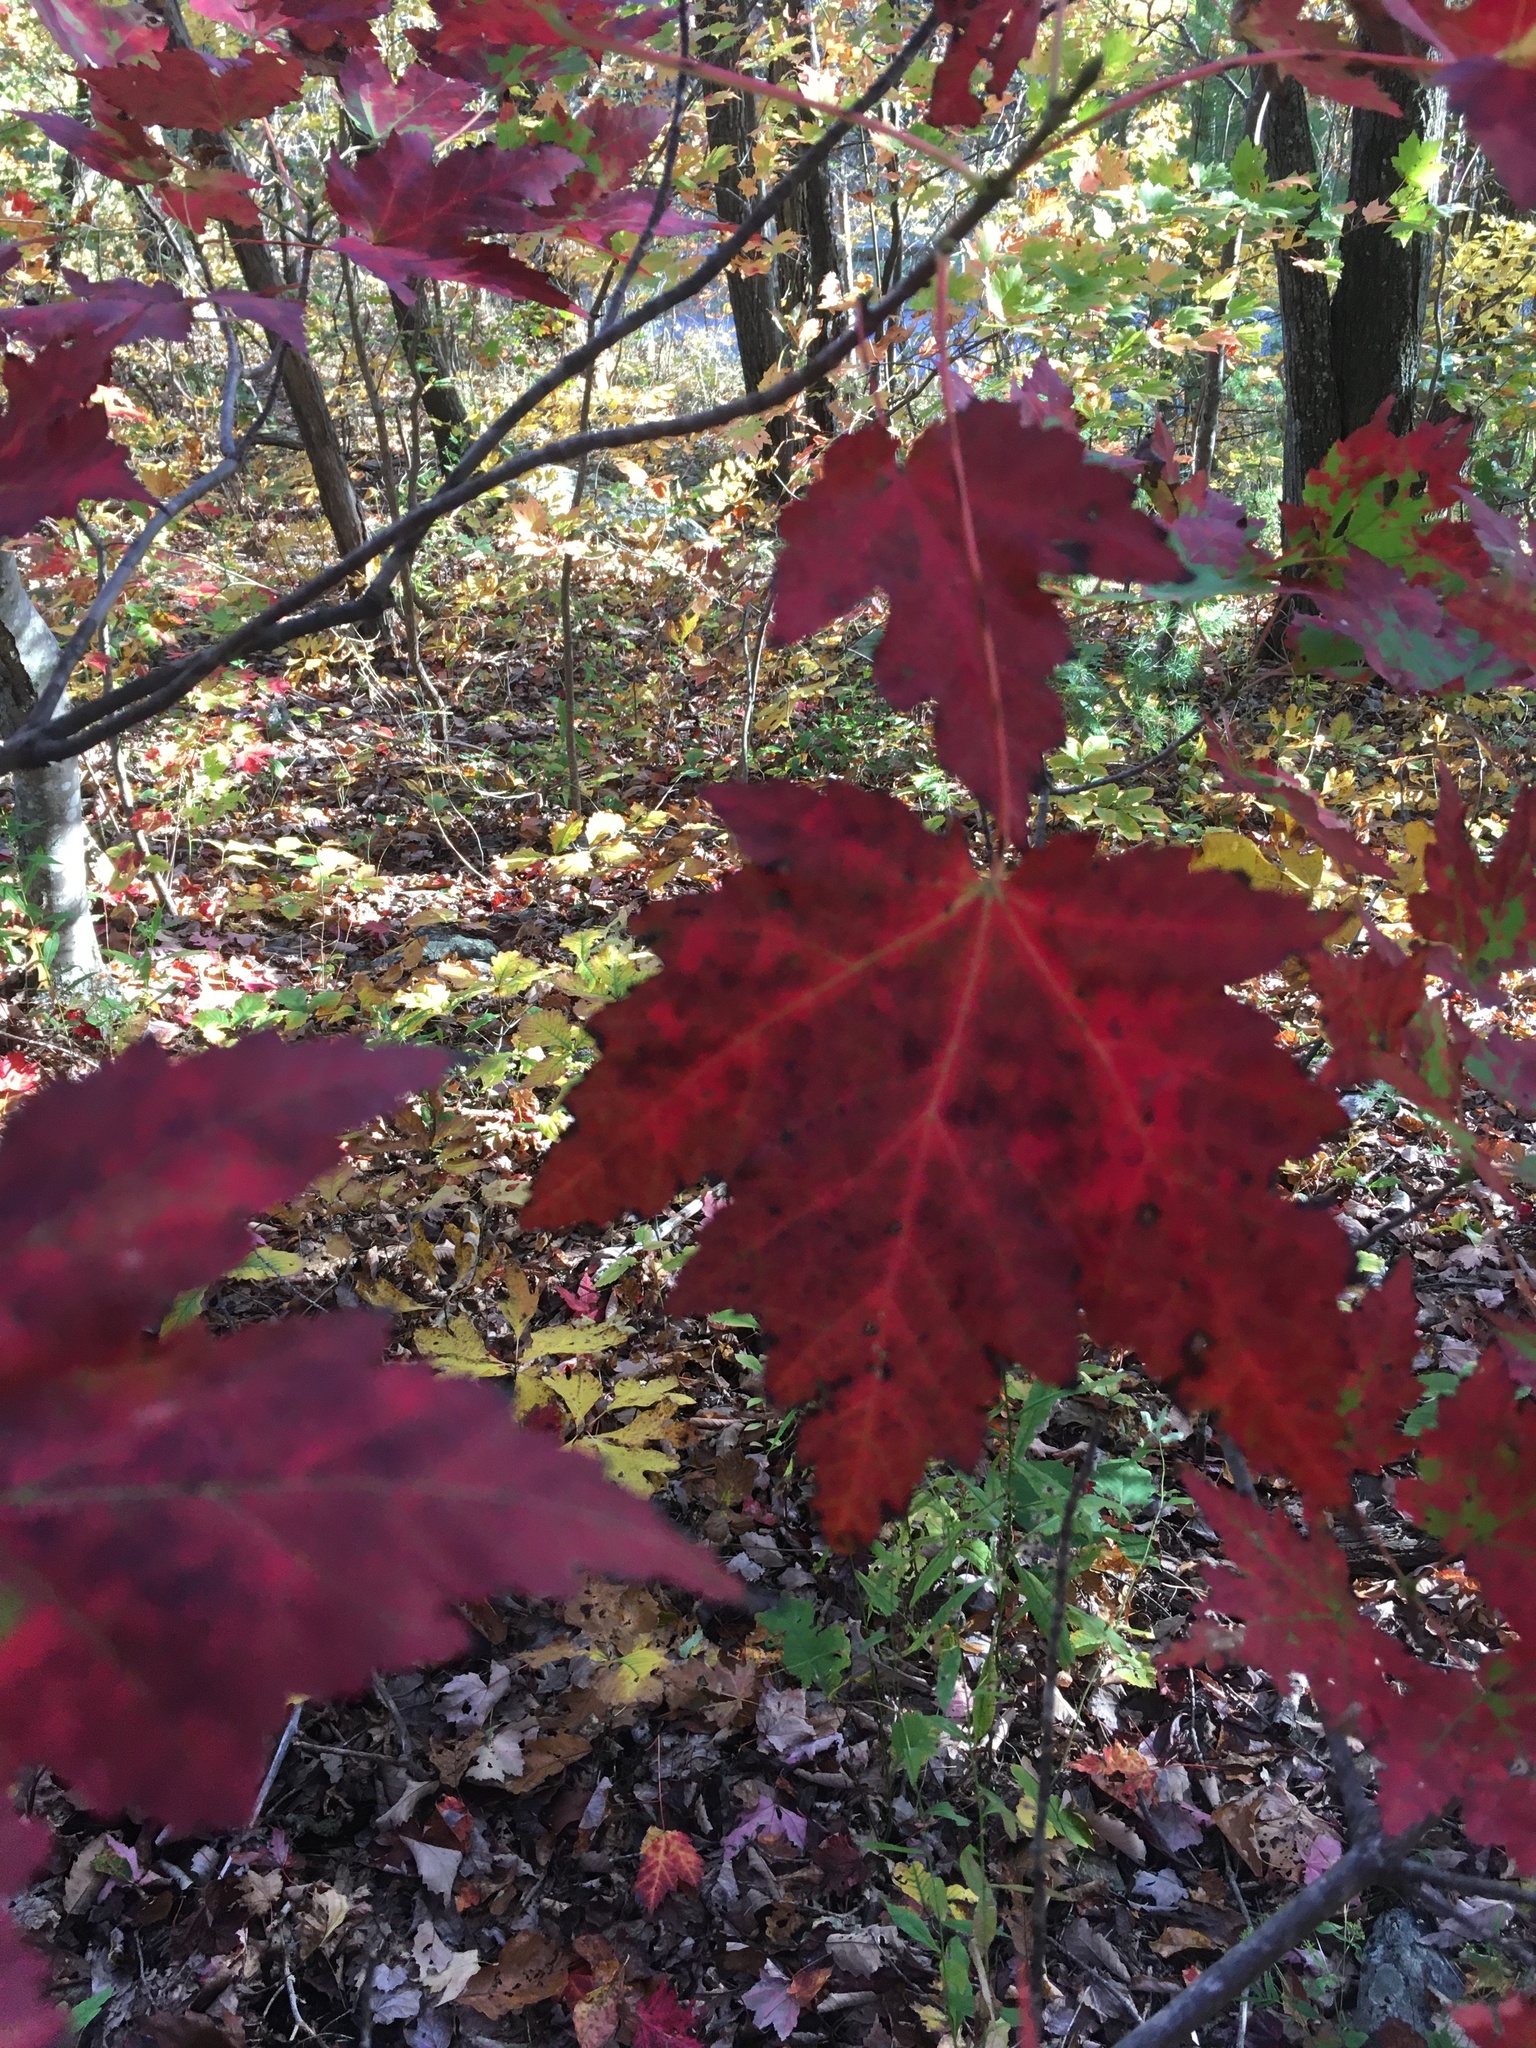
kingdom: Plantae
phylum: Tracheophyta
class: Magnoliopsida
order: Sapindales
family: Sapindaceae
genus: Acer
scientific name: Acer rubrum
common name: Red maple
